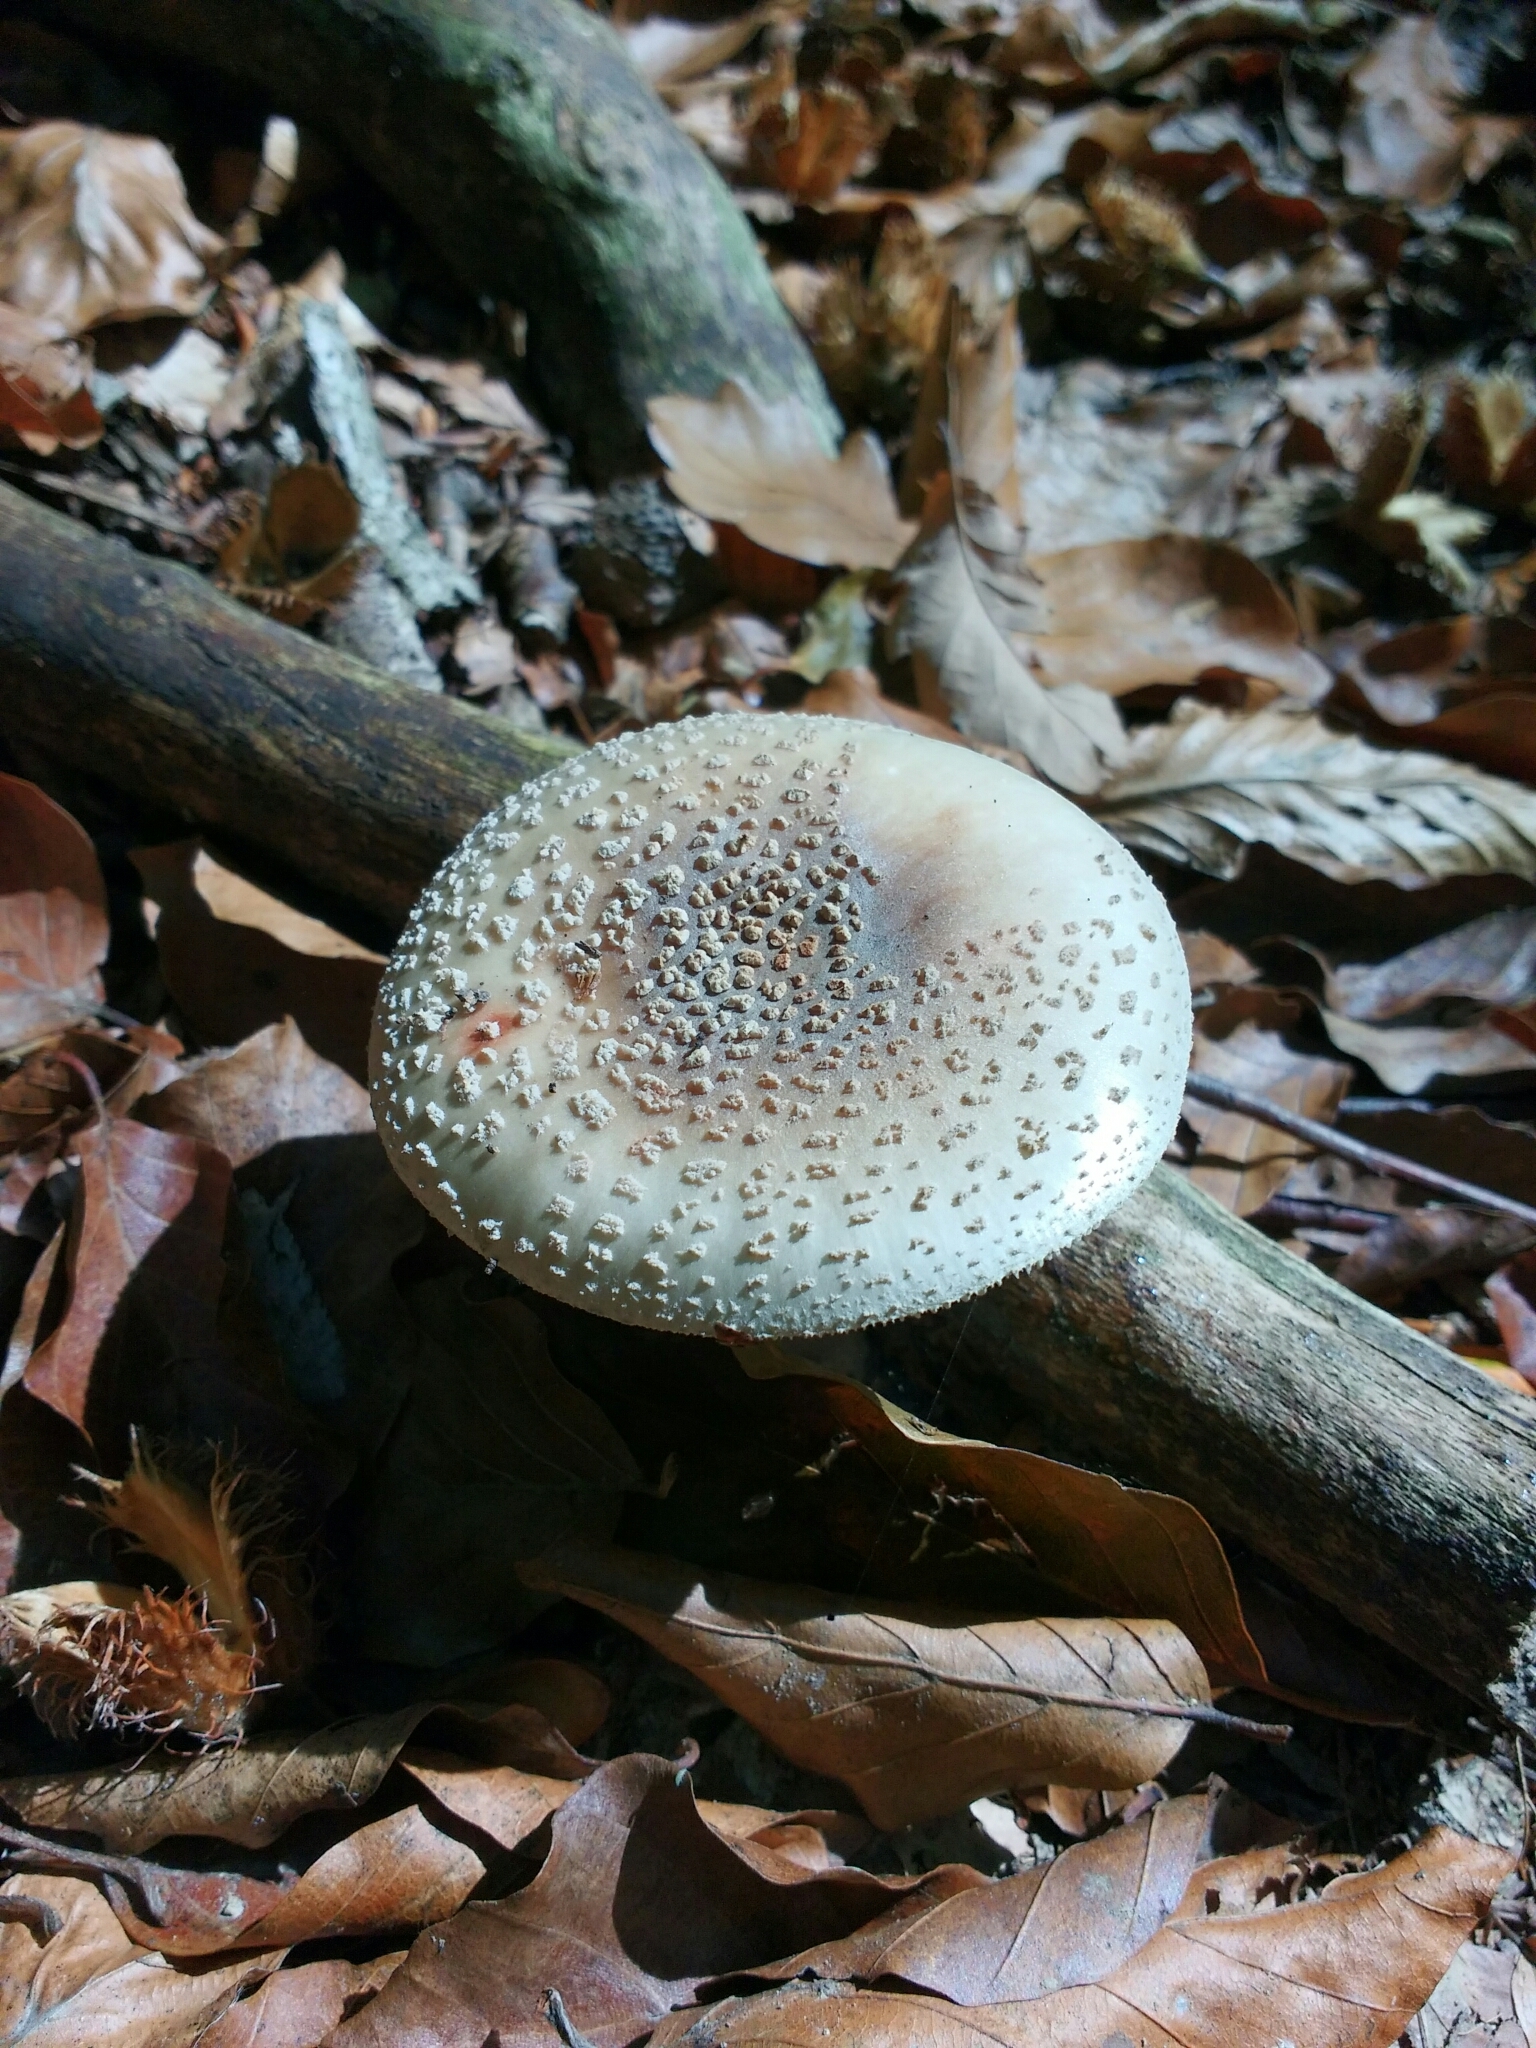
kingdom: Fungi
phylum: Basidiomycota
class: Agaricomycetes
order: Agaricales
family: Amanitaceae
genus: Amanita
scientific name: Amanita rubescens
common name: Blusher
